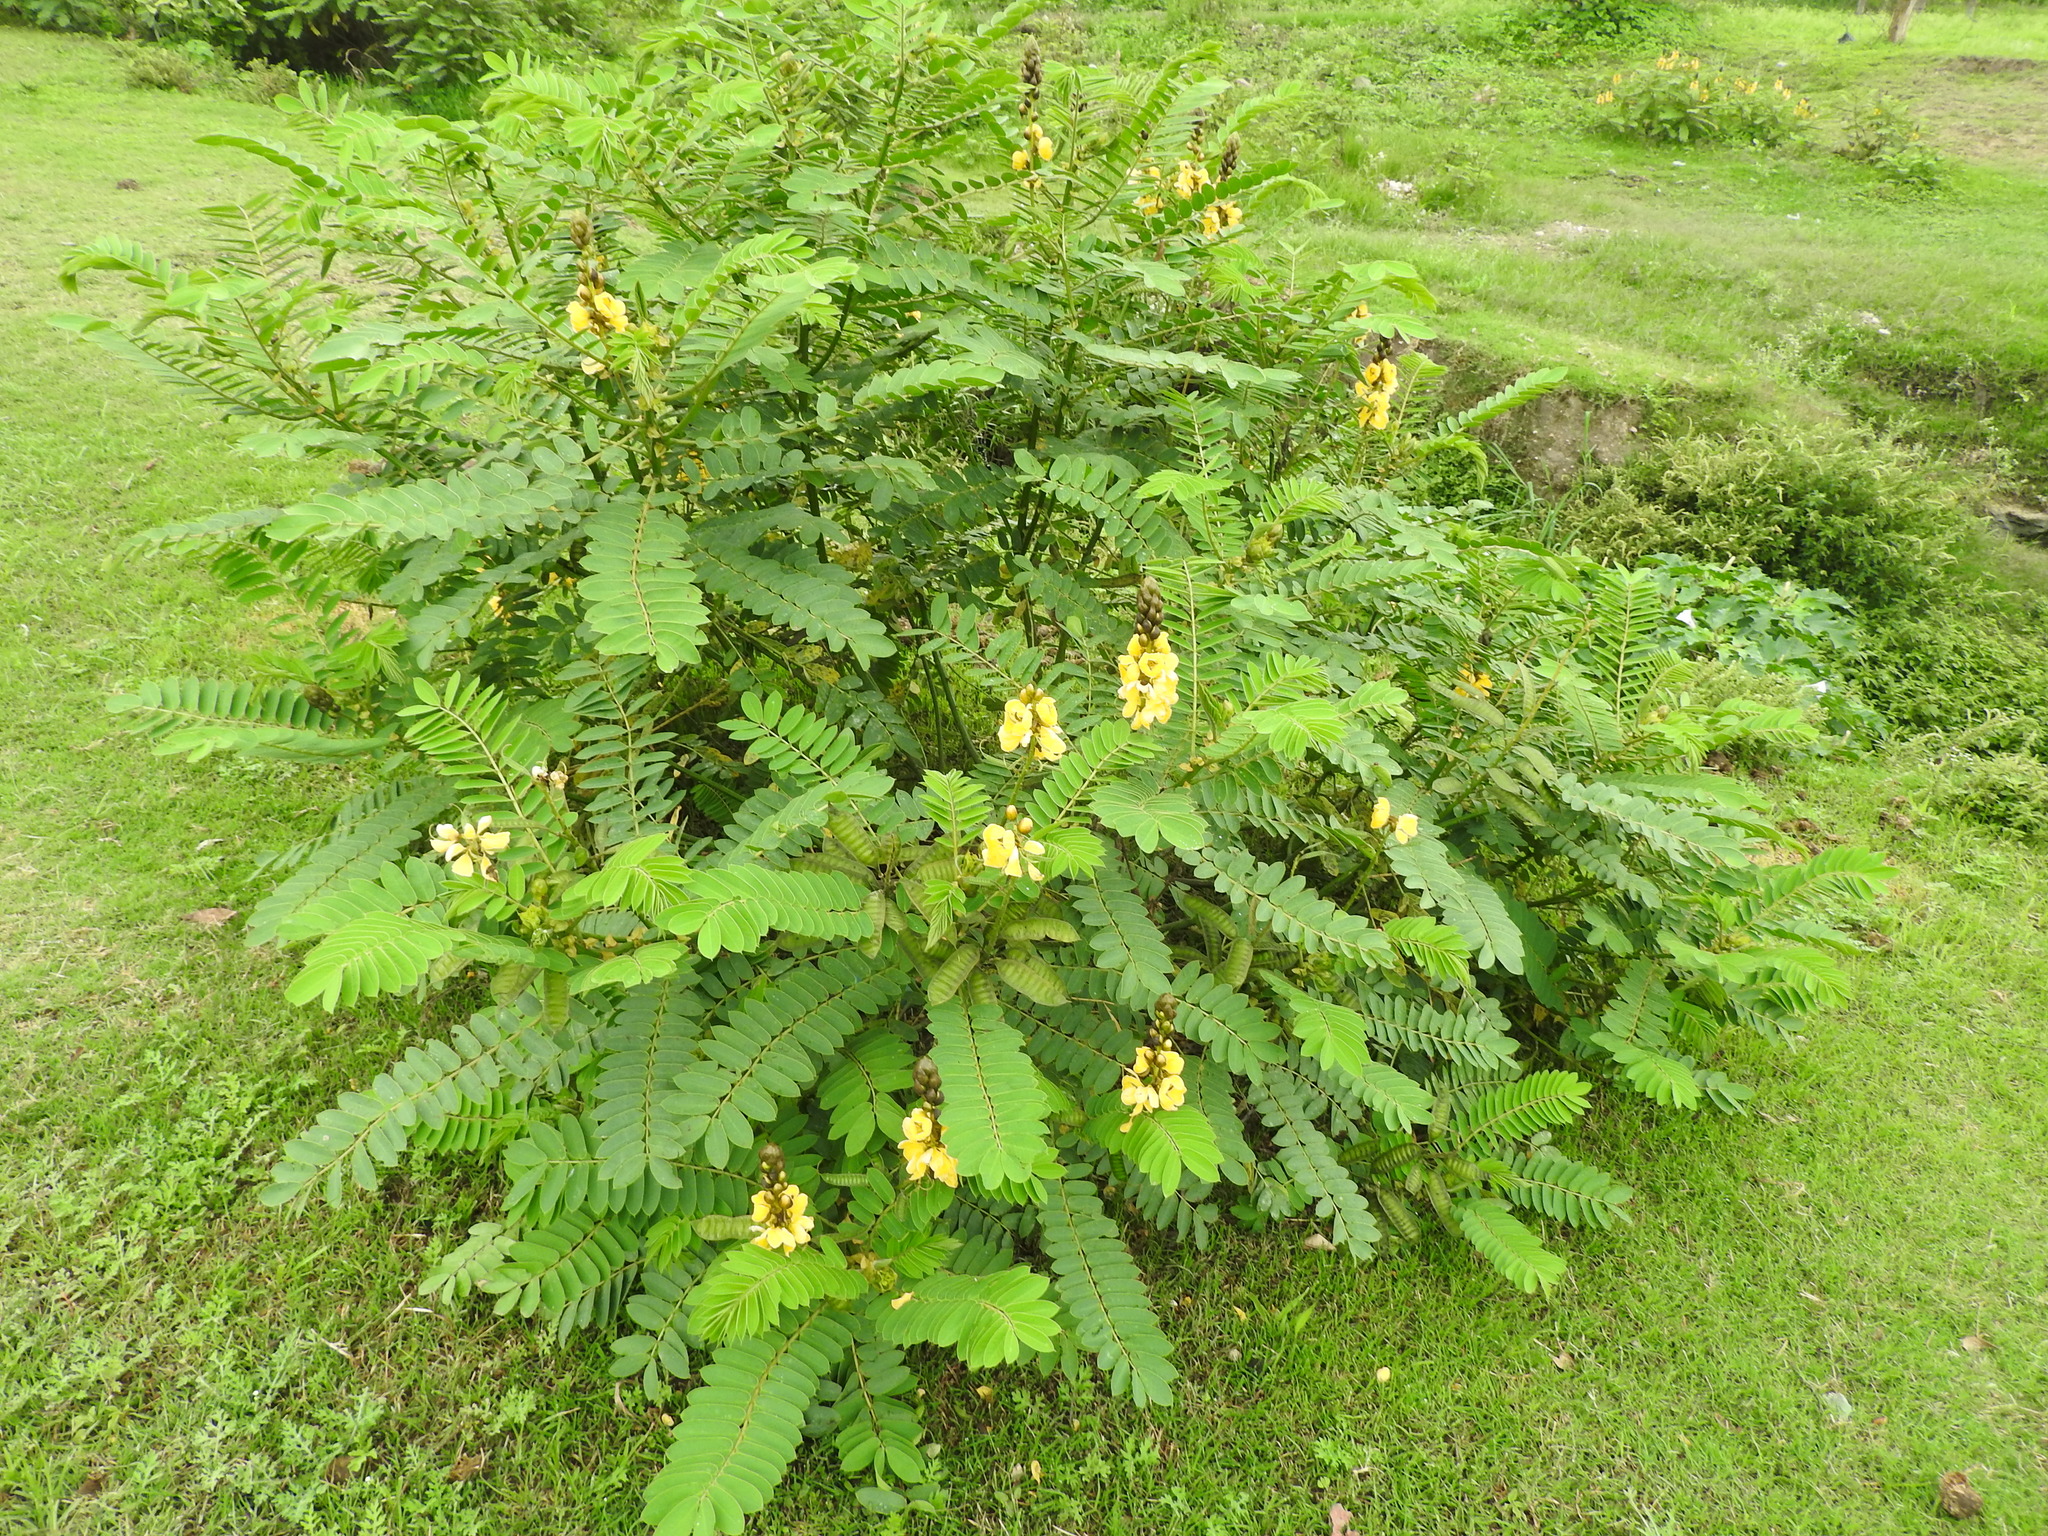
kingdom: Plantae
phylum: Tracheophyta
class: Magnoliopsida
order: Fabales
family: Fabaceae
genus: Senna
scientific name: Senna didymobotrya
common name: African senna
